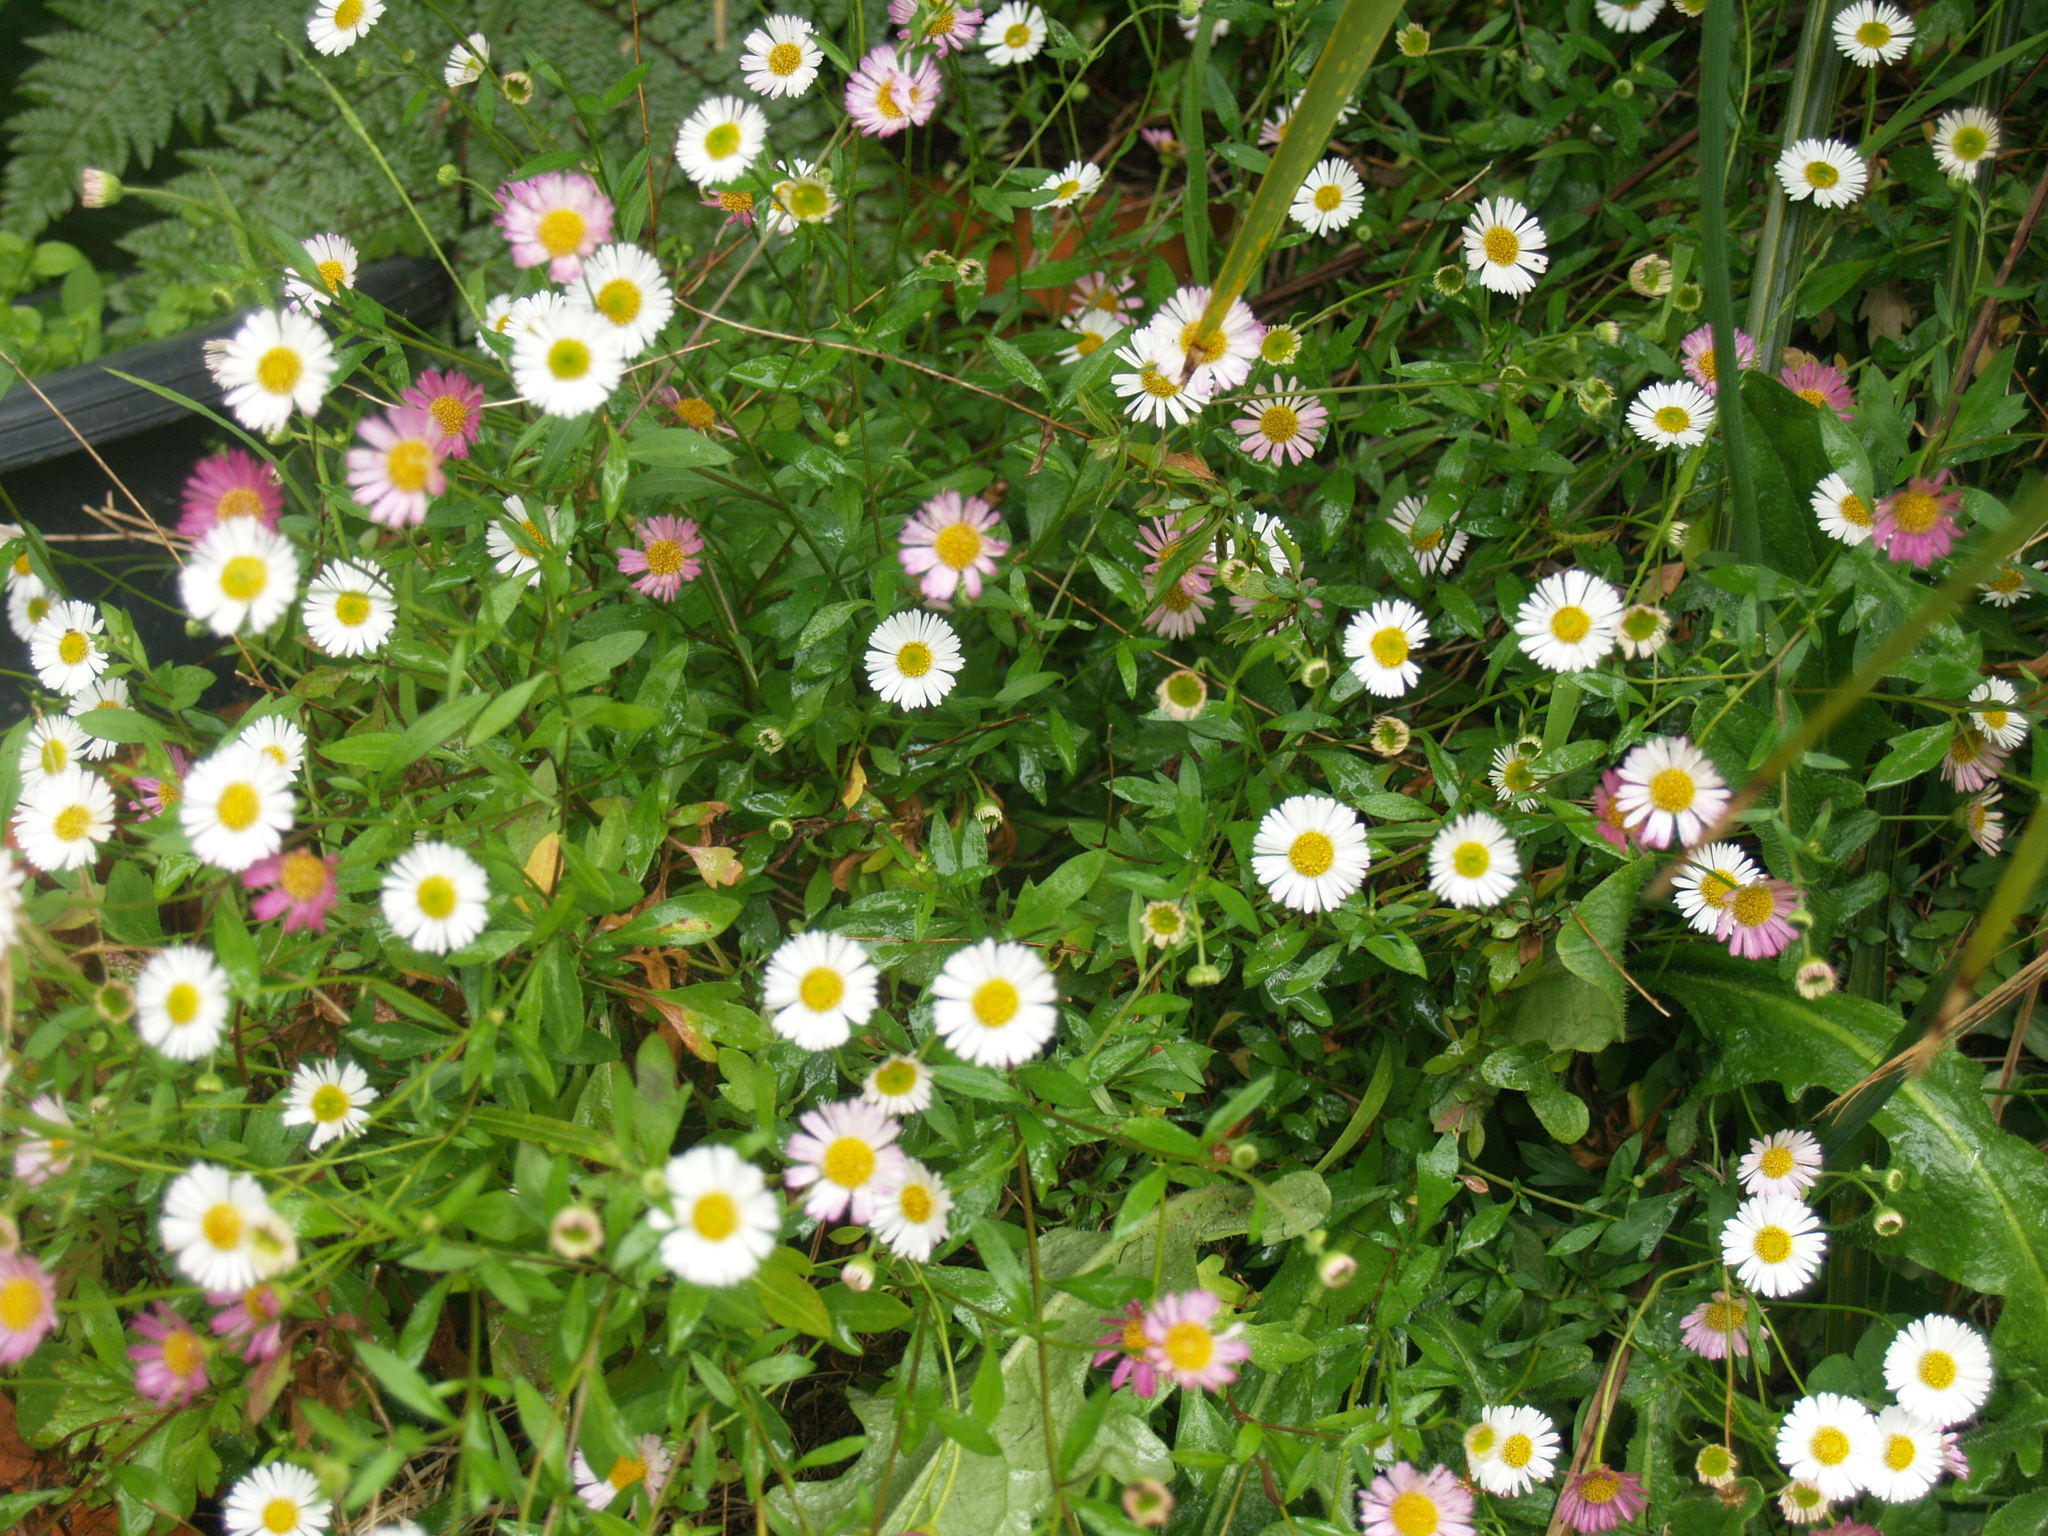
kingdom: Plantae
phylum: Tracheophyta
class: Magnoliopsida
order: Asterales
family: Asteraceae
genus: Erigeron
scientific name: Erigeron karvinskianus
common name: Mexican fleabane
